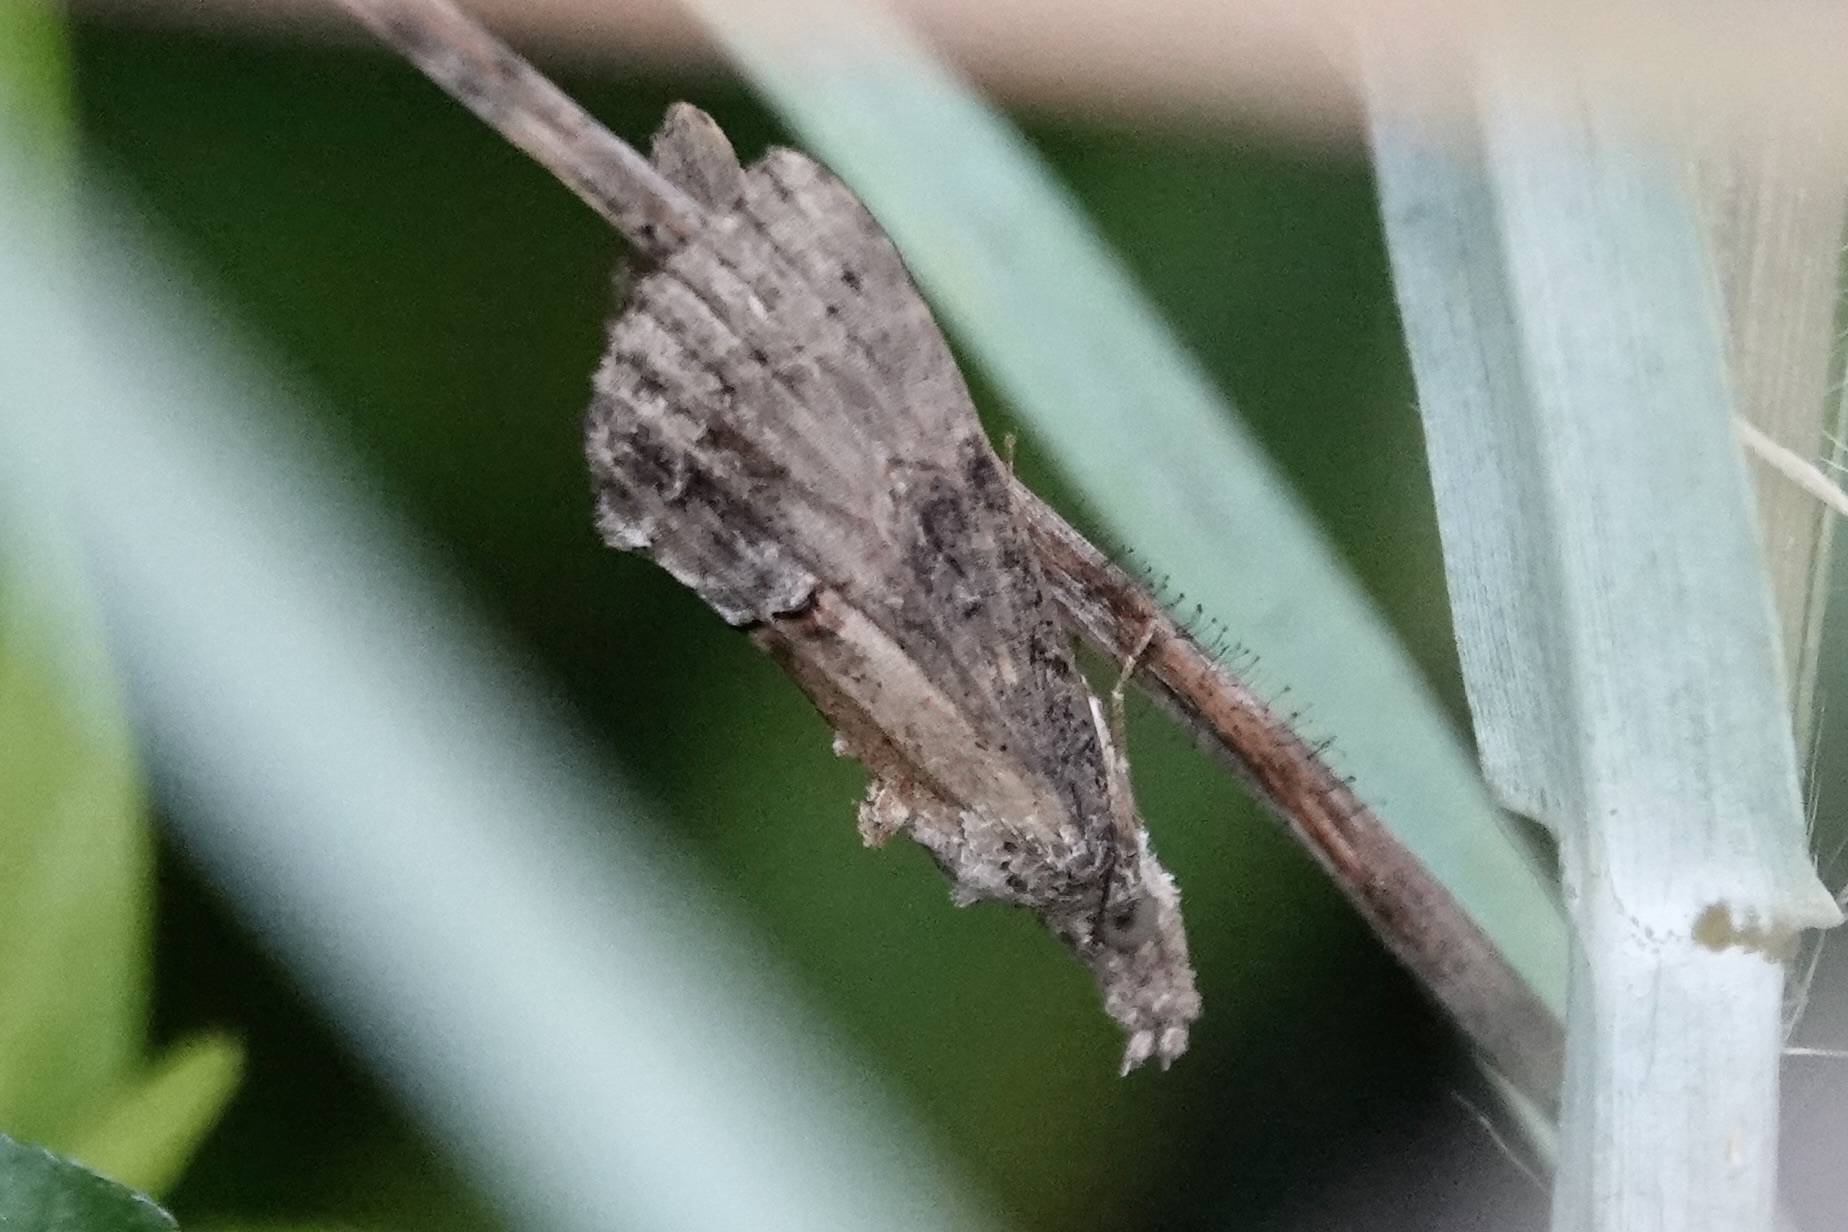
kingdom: Animalia
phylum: Arthropoda
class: Insecta
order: Lepidoptera
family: Erebidae
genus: Hypena
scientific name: Hypena scabra
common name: Green cloverworm
